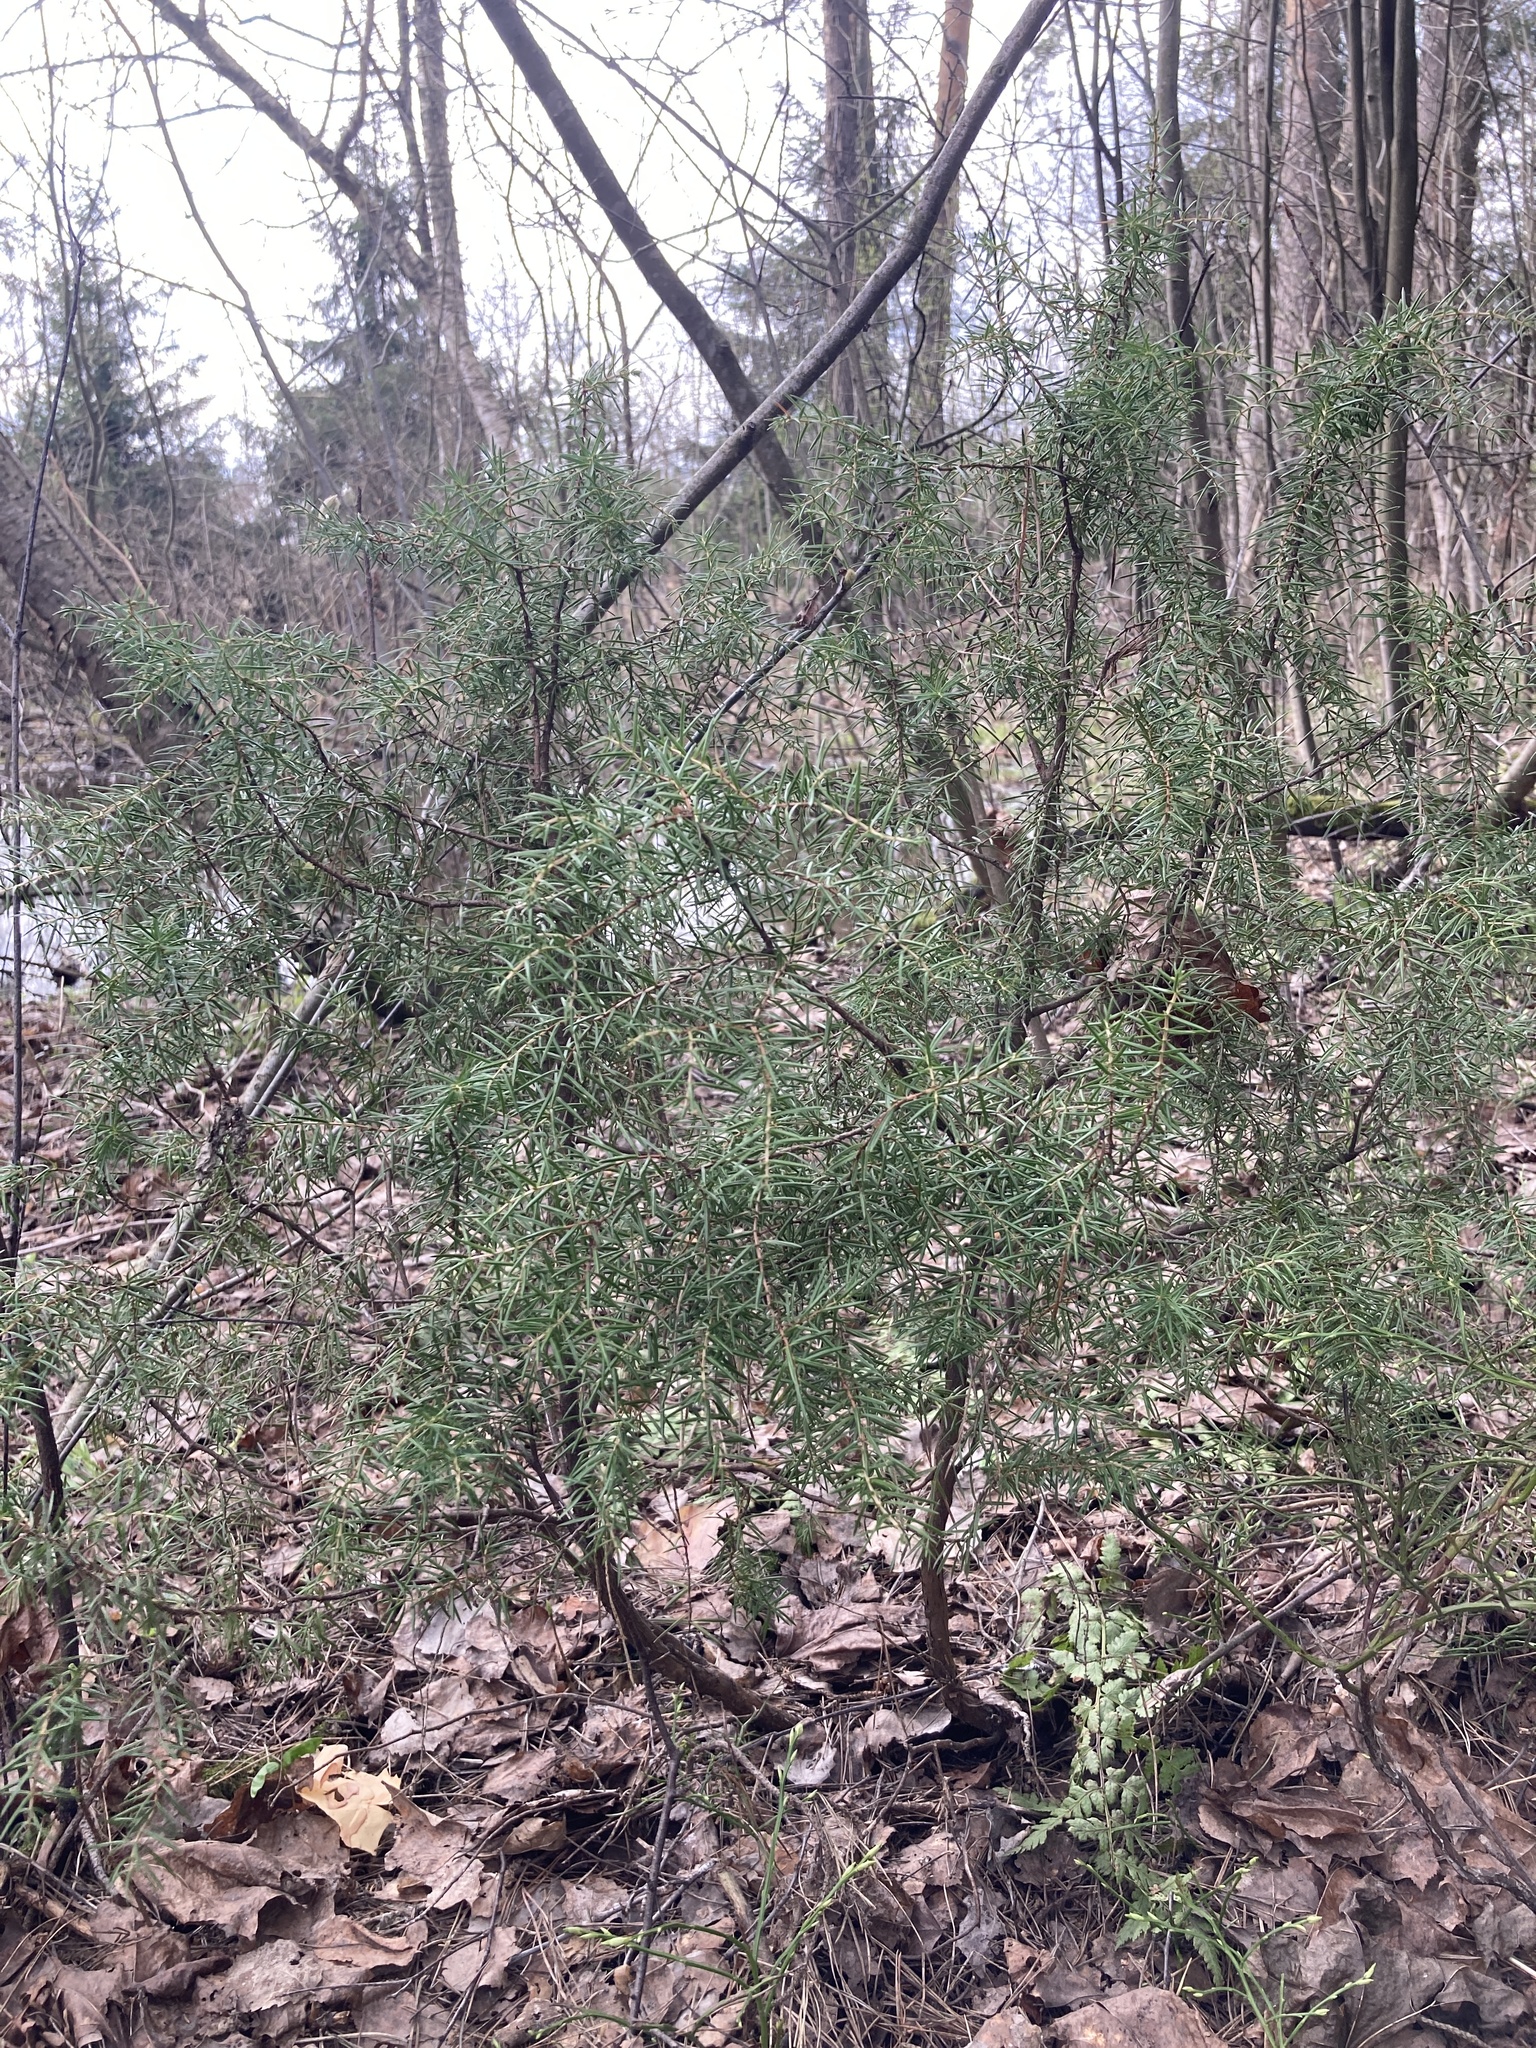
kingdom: Plantae
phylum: Tracheophyta
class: Pinopsida
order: Pinales
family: Cupressaceae
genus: Juniperus
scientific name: Juniperus communis
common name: Common juniper
